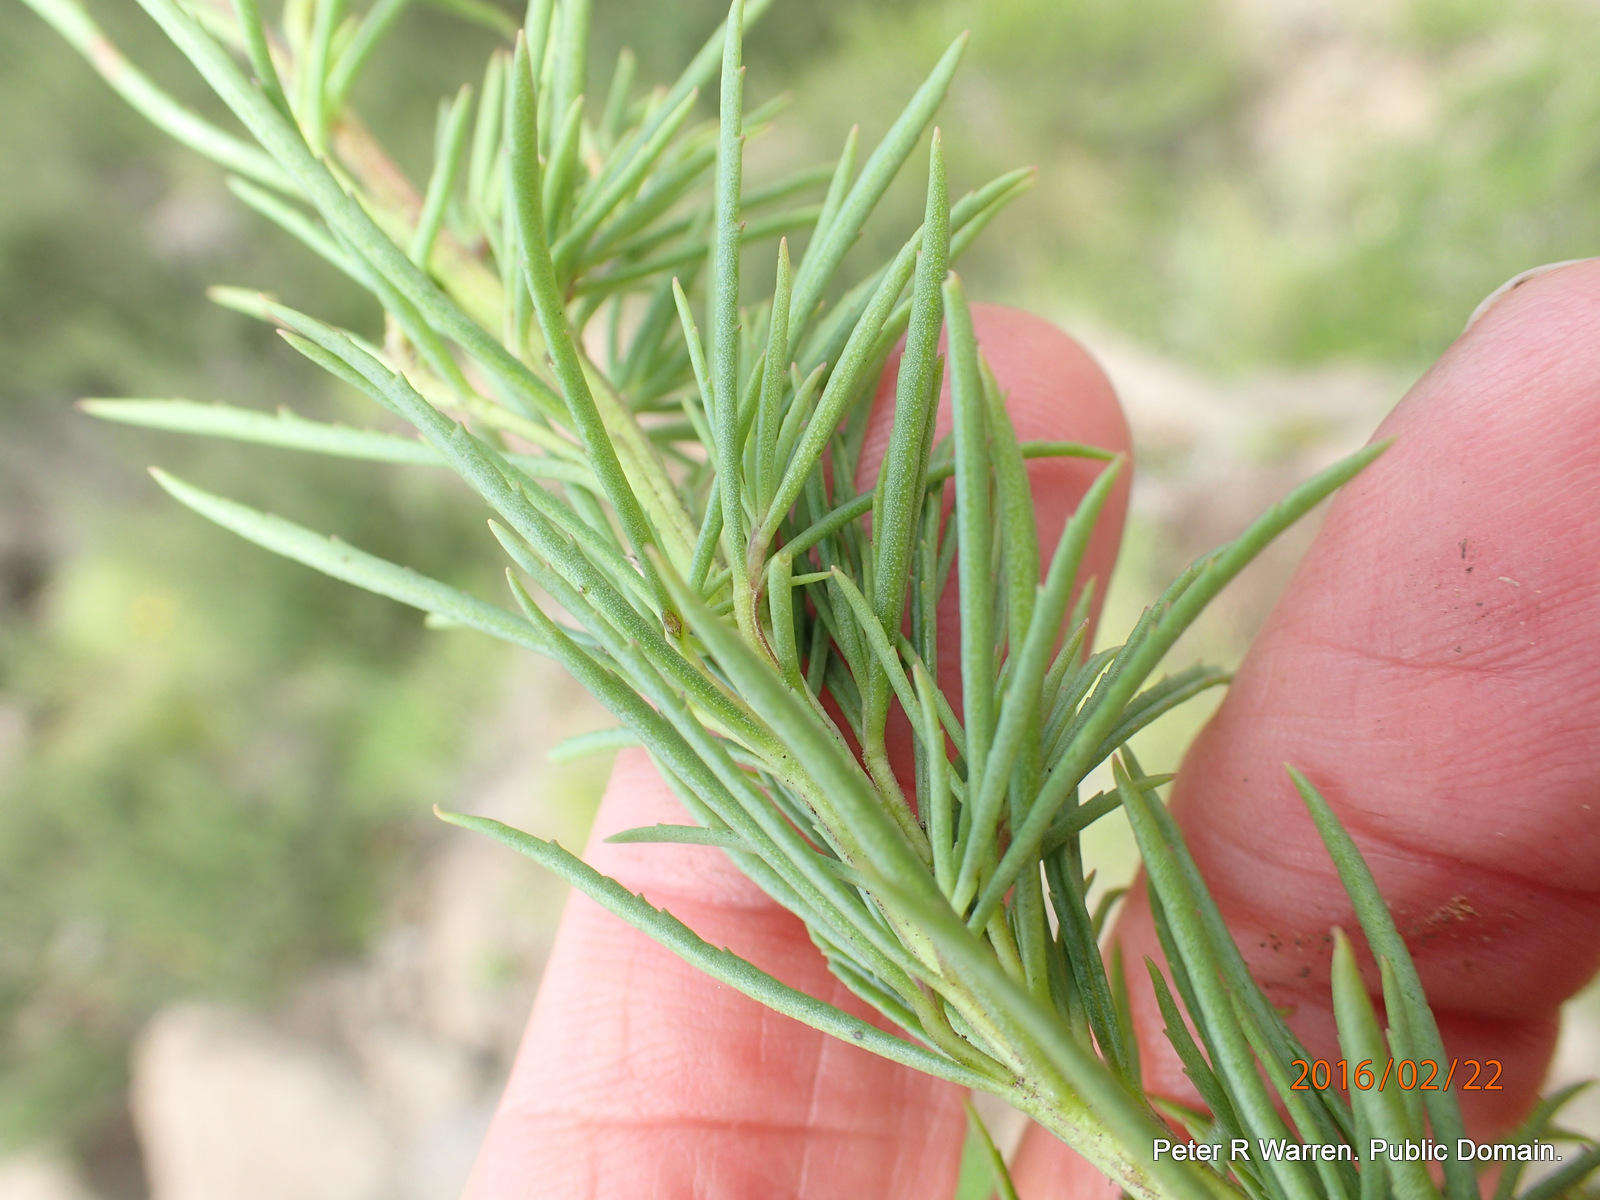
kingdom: Plantae
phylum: Tracheophyta
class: Magnoliopsida
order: Lamiales
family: Scrophulariaceae
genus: Hebenstretia
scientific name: Hebenstretia dura
